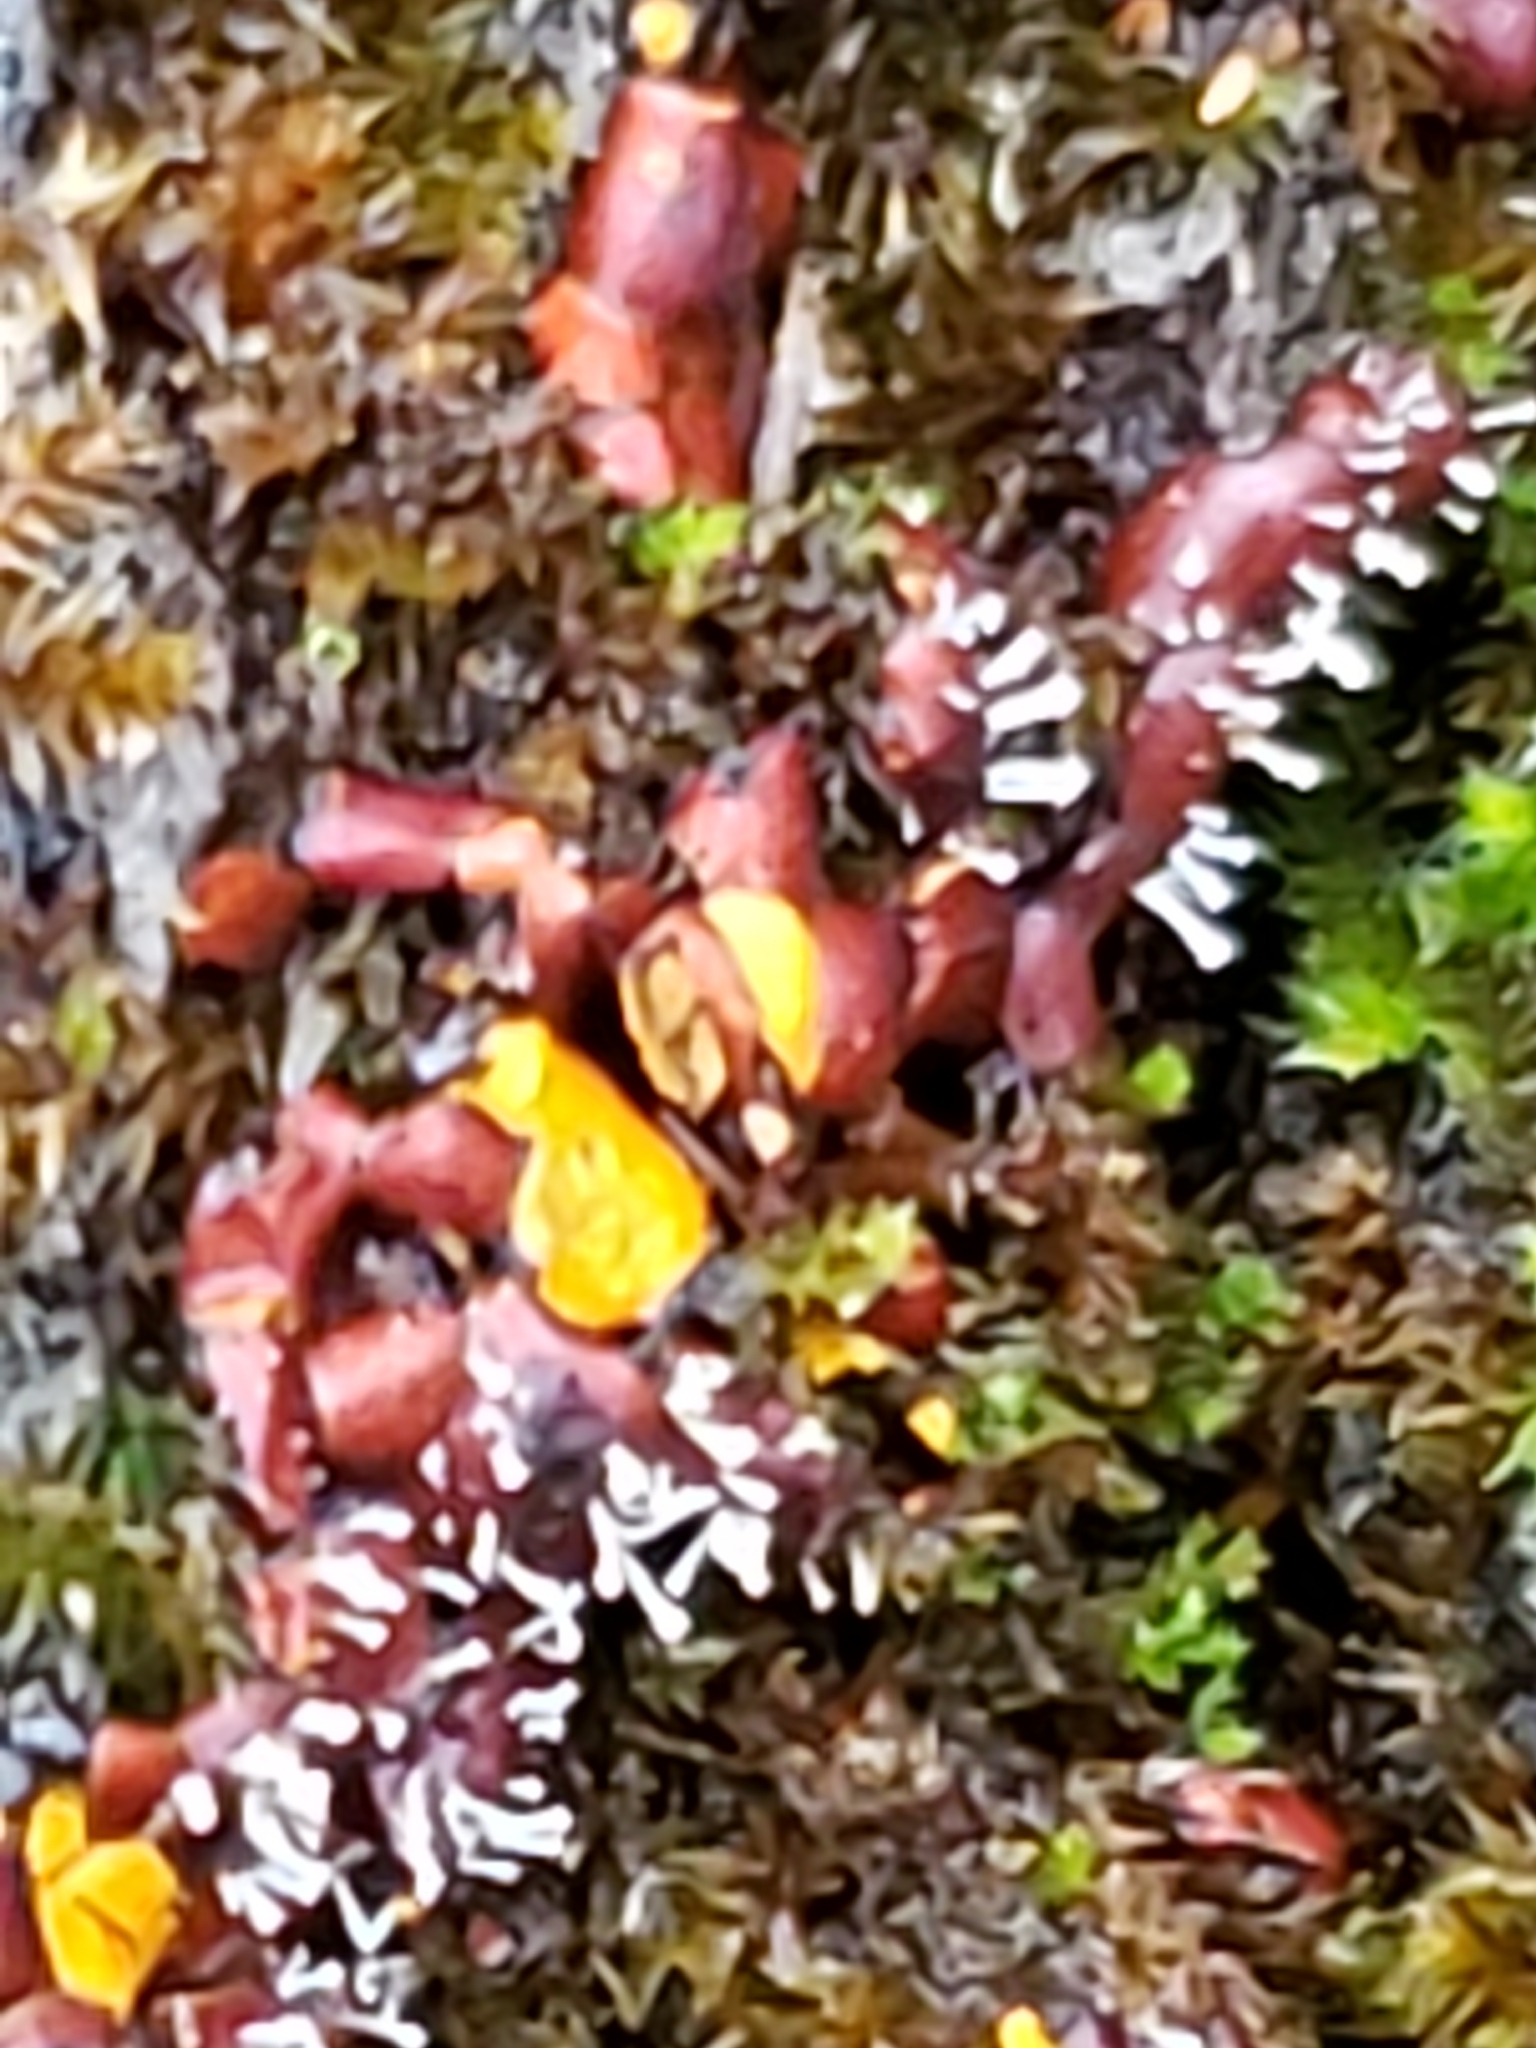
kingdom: Fungi
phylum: Ascomycota
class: Sordariomycetes
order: Hypocreales
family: Ophiocordycipitaceae
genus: Polycephalomyces
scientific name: Polycephalomyces tomentosus
